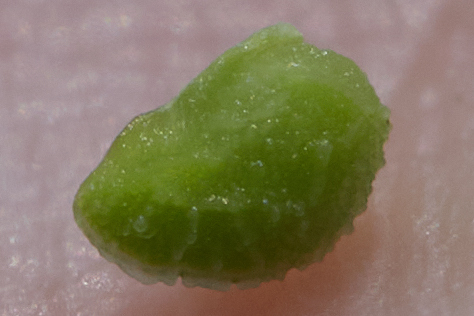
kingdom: Plantae
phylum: Tracheophyta
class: Magnoliopsida
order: Boraginales
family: Boraginaceae
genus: Amsinckia
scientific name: Amsinckia lycopsoides
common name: Tarweed fiddleneck
